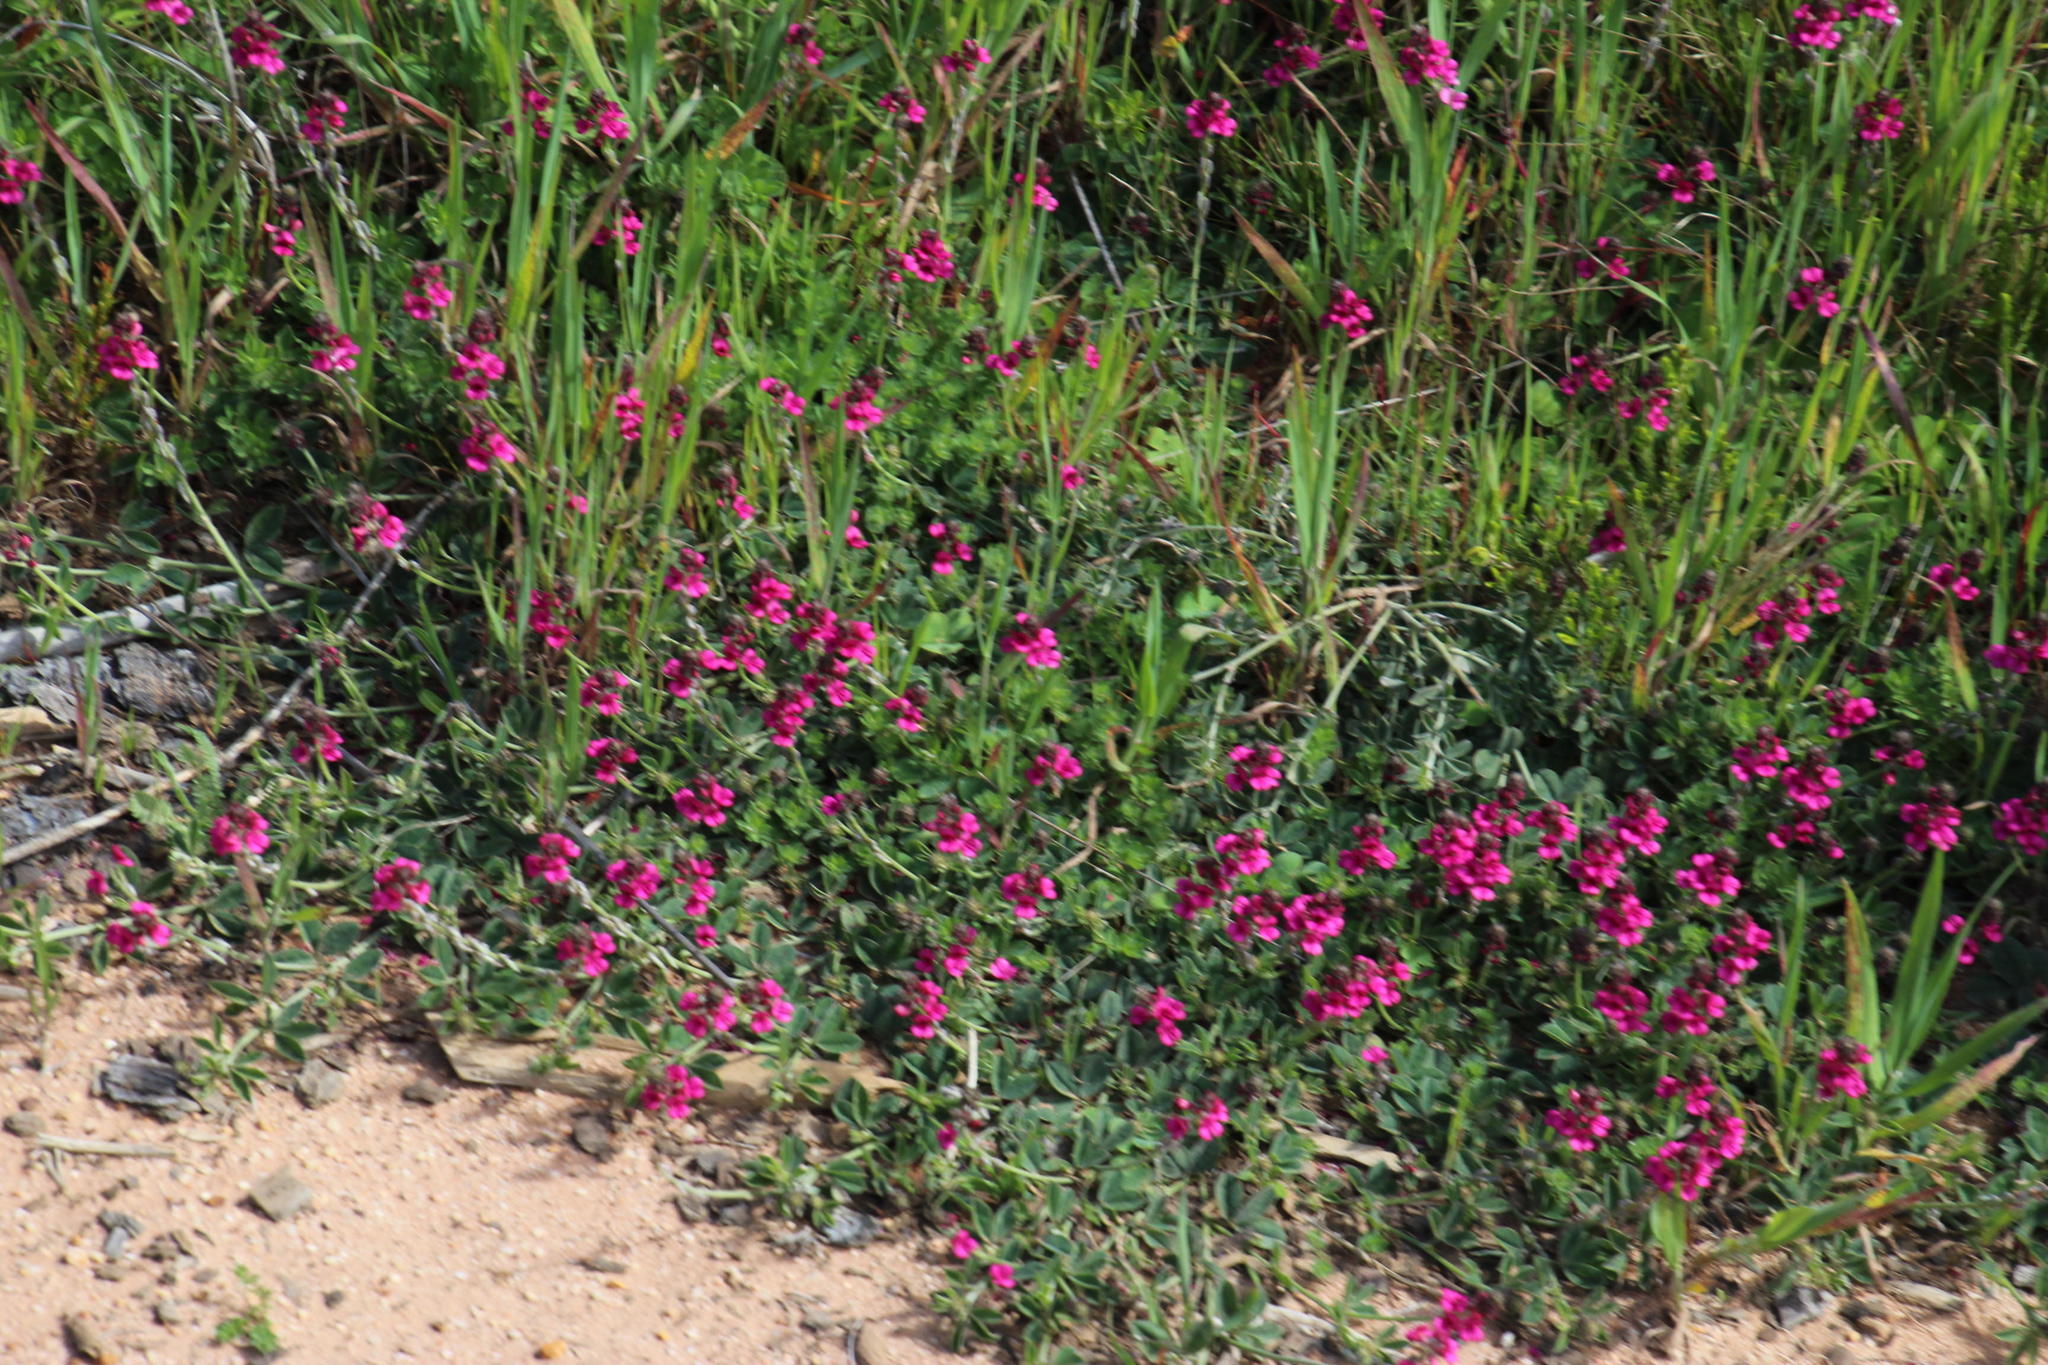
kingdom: Plantae
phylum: Tracheophyta
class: Magnoliopsida
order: Fabales
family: Fabaceae
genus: Indigofera
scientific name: Indigofera incana
